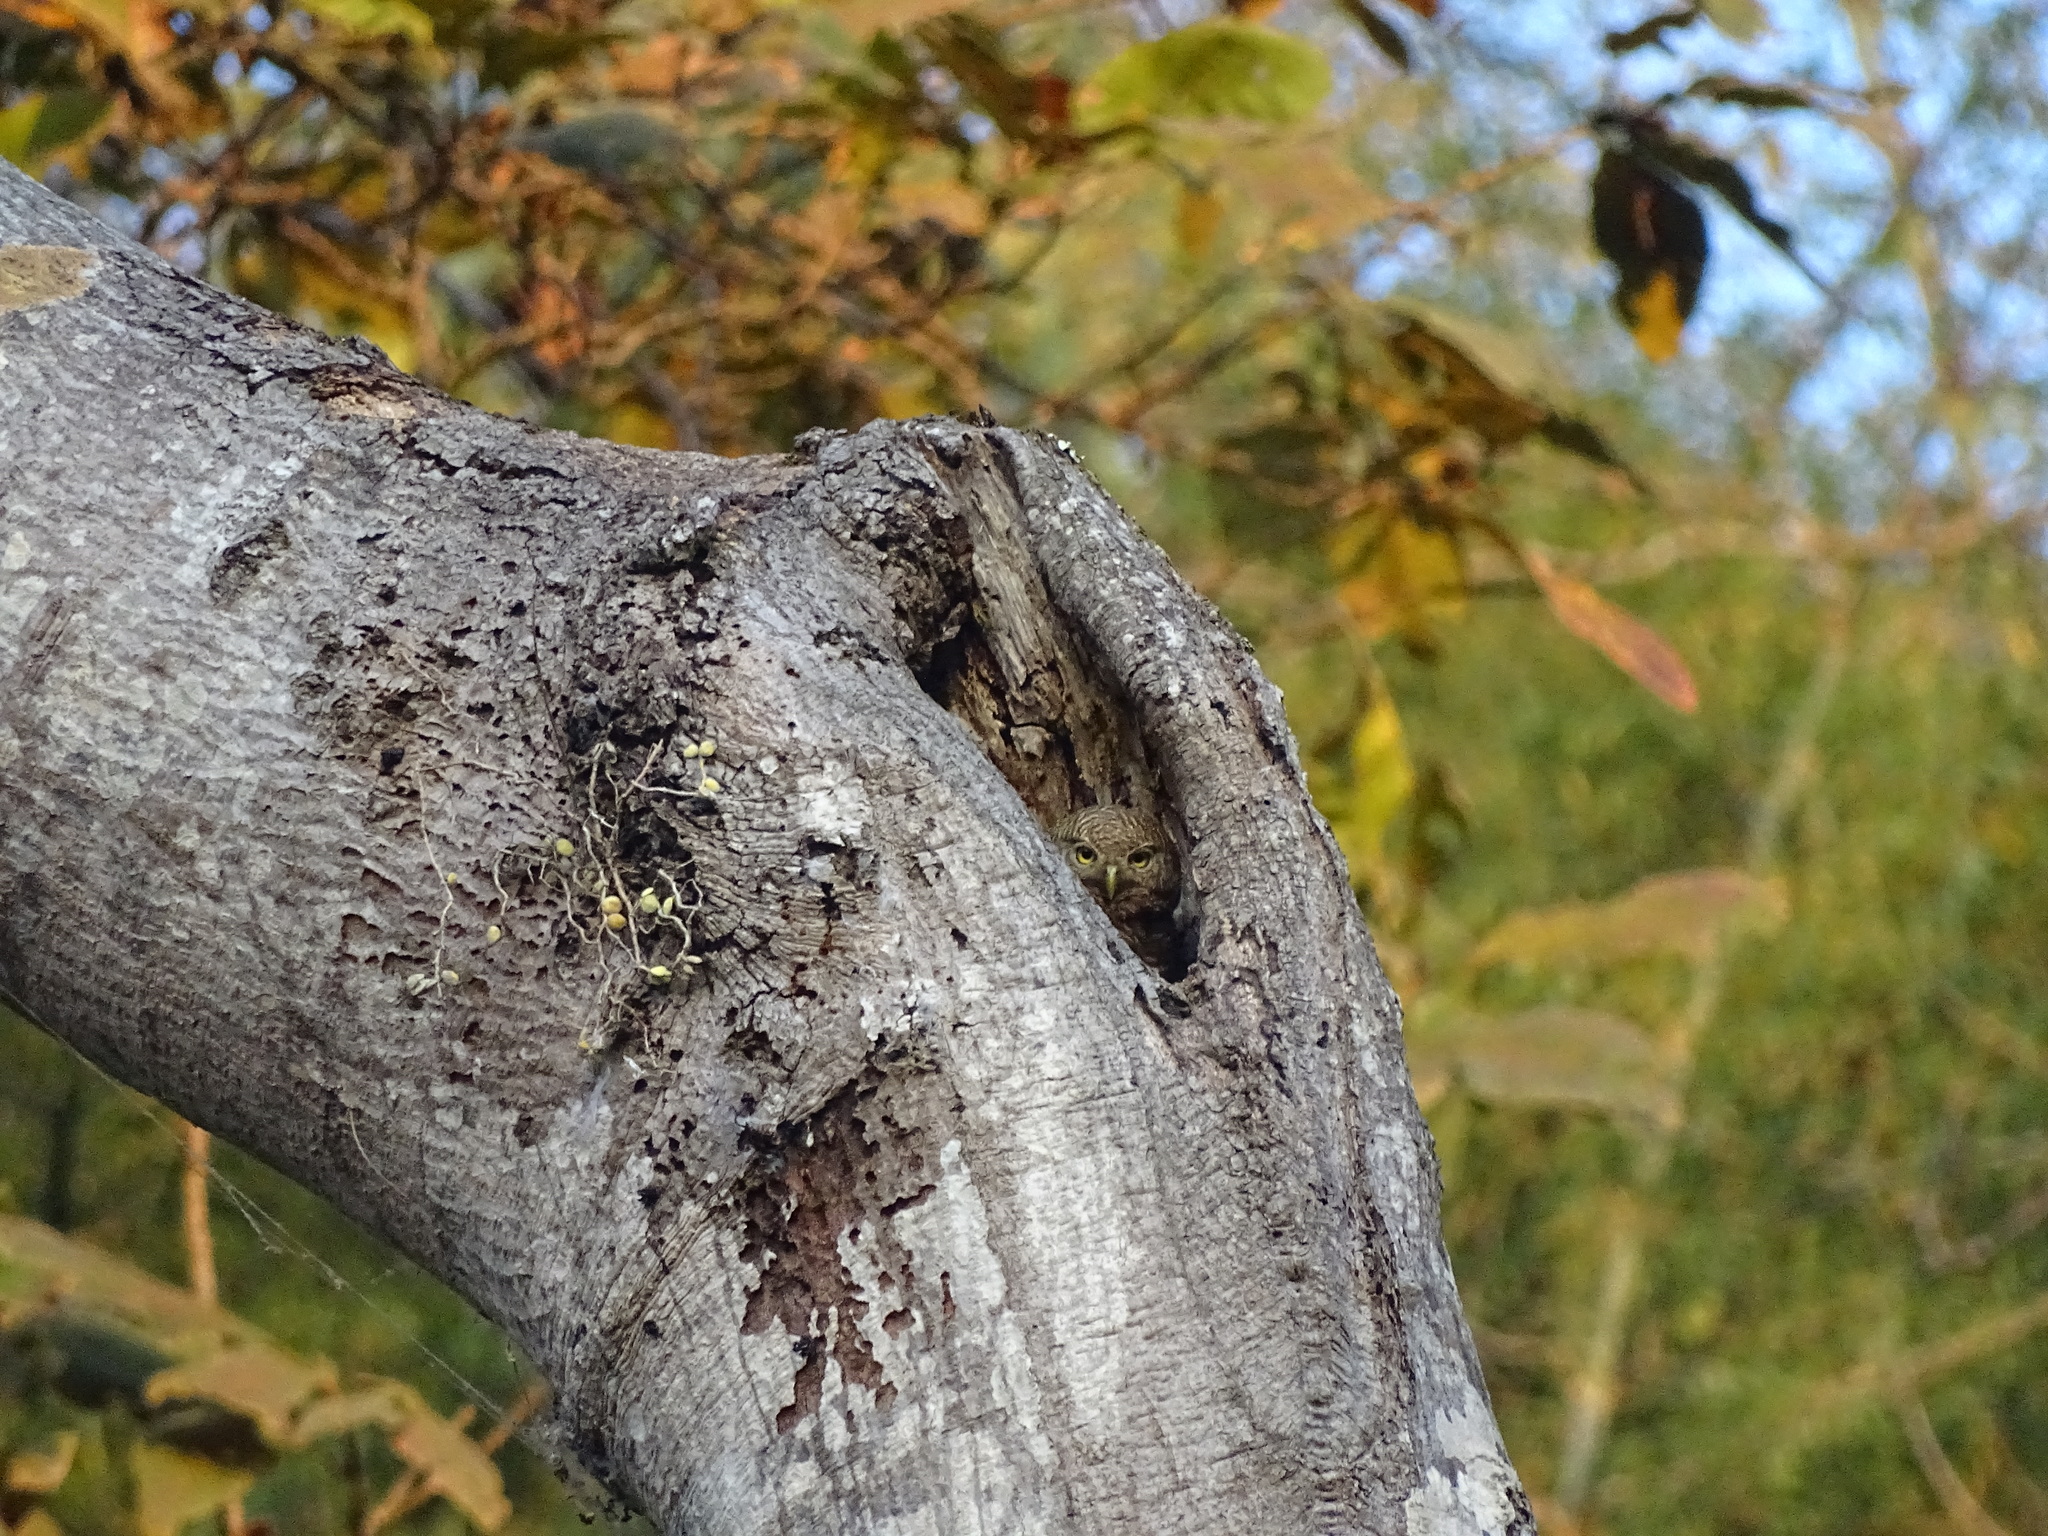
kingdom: Animalia
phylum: Chordata
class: Aves
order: Strigiformes
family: Strigidae
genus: Glaucidium
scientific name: Glaucidium cuculoides
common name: Asian barred owlet
